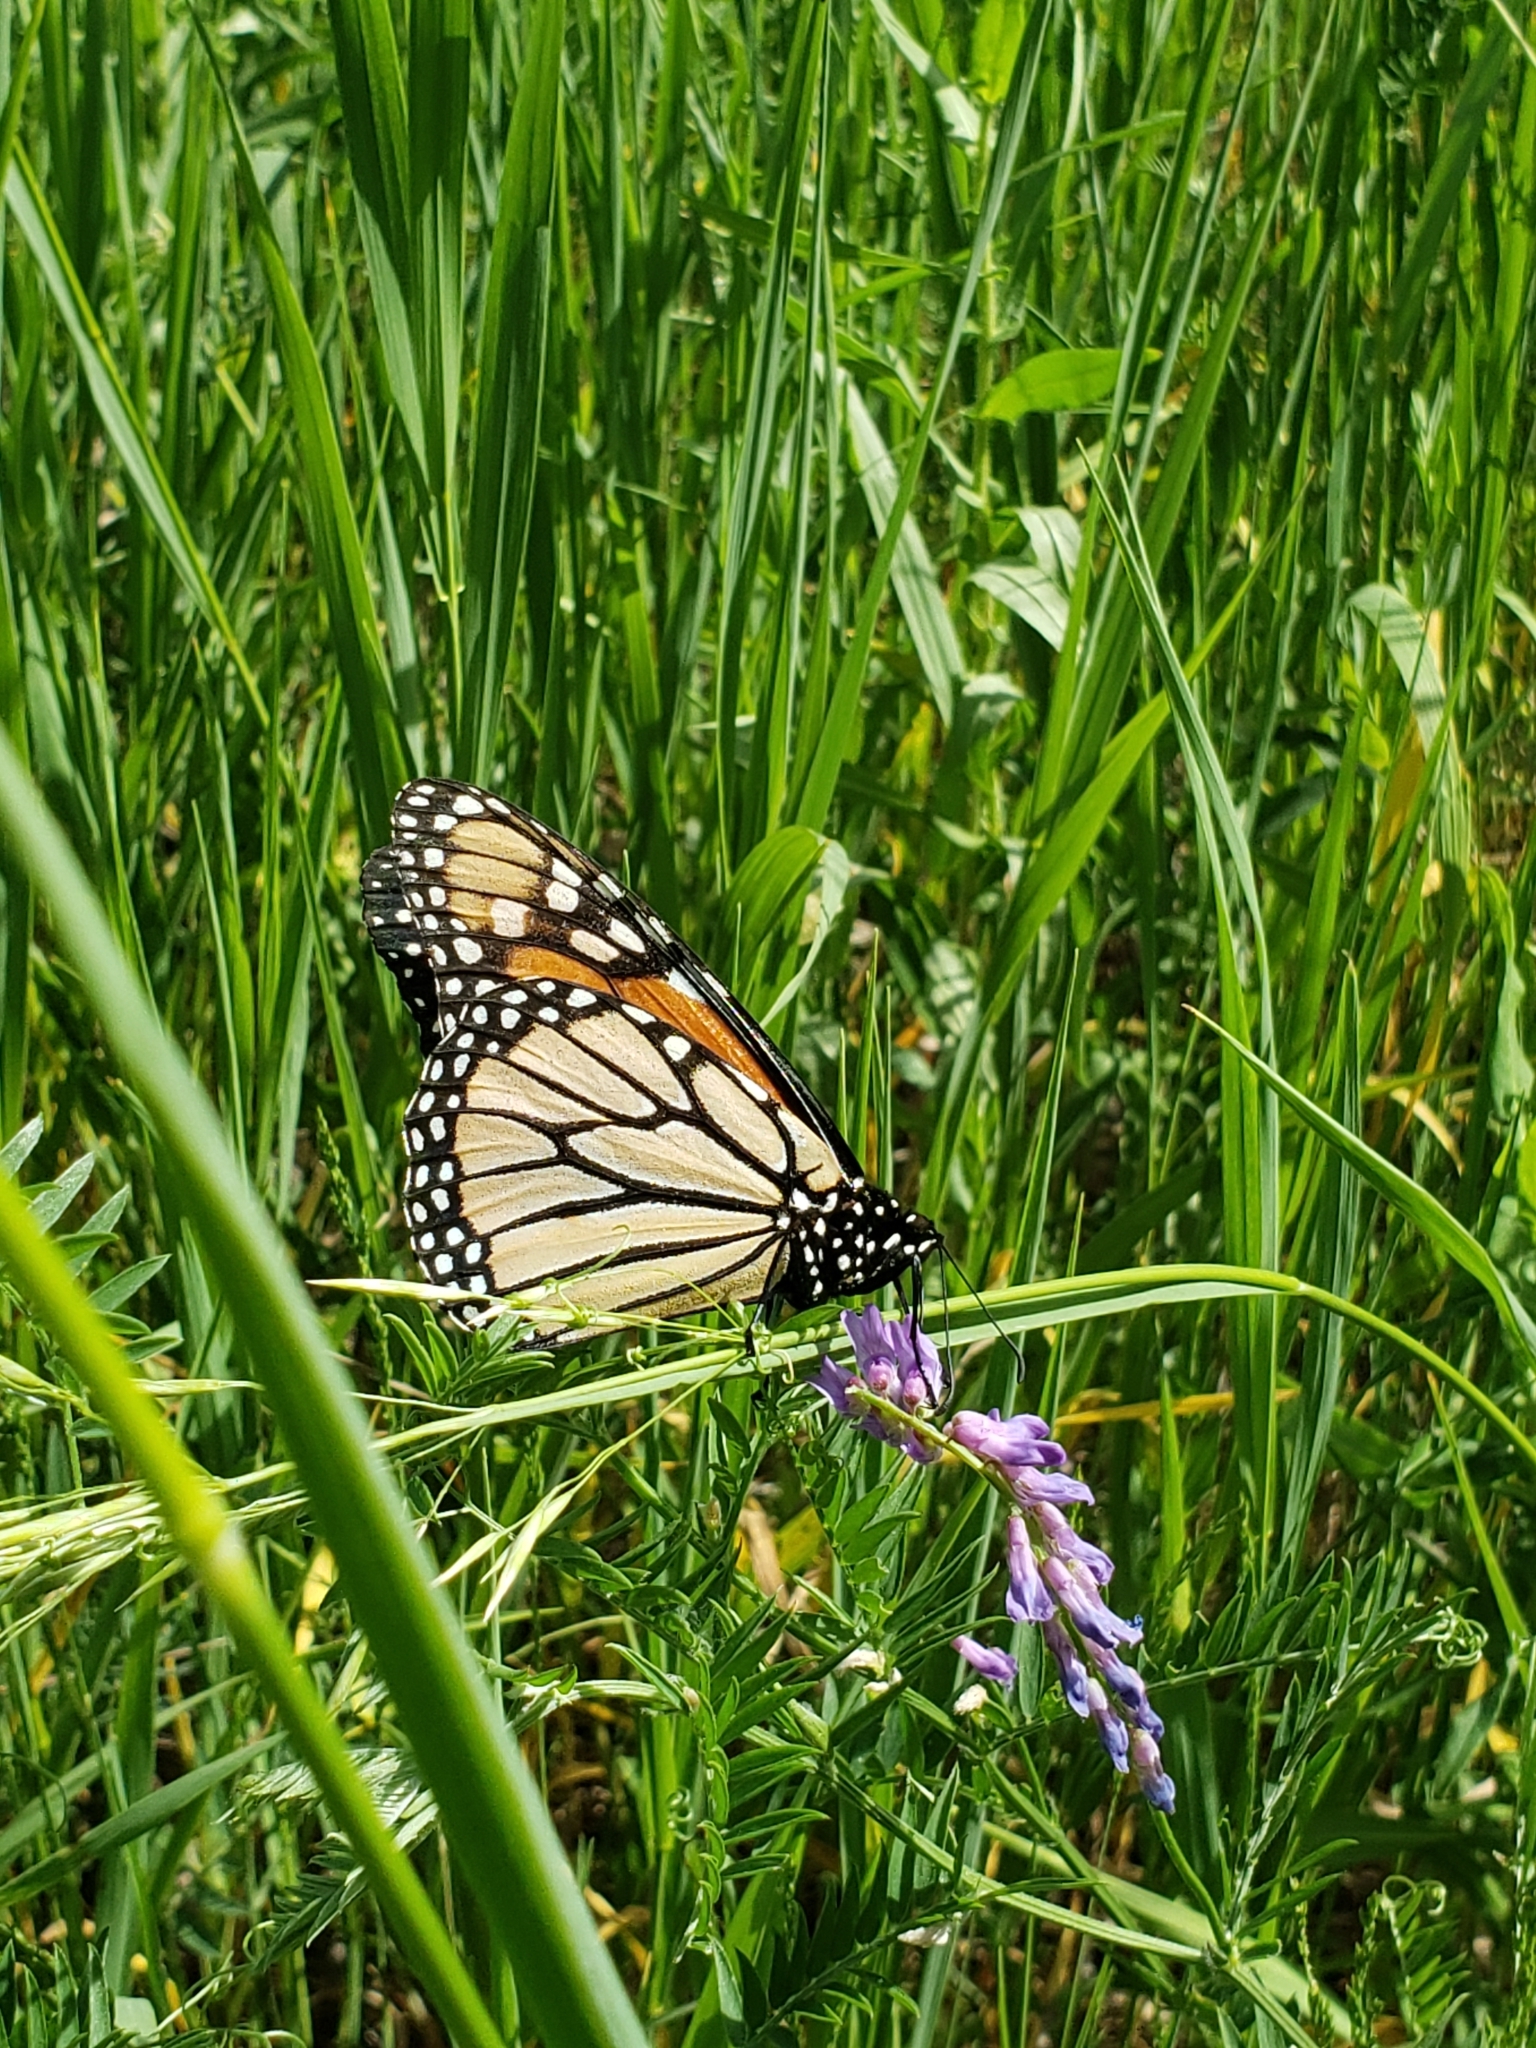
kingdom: Animalia
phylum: Arthropoda
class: Insecta
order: Lepidoptera
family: Nymphalidae
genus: Danaus
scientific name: Danaus plexippus
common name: Monarch
